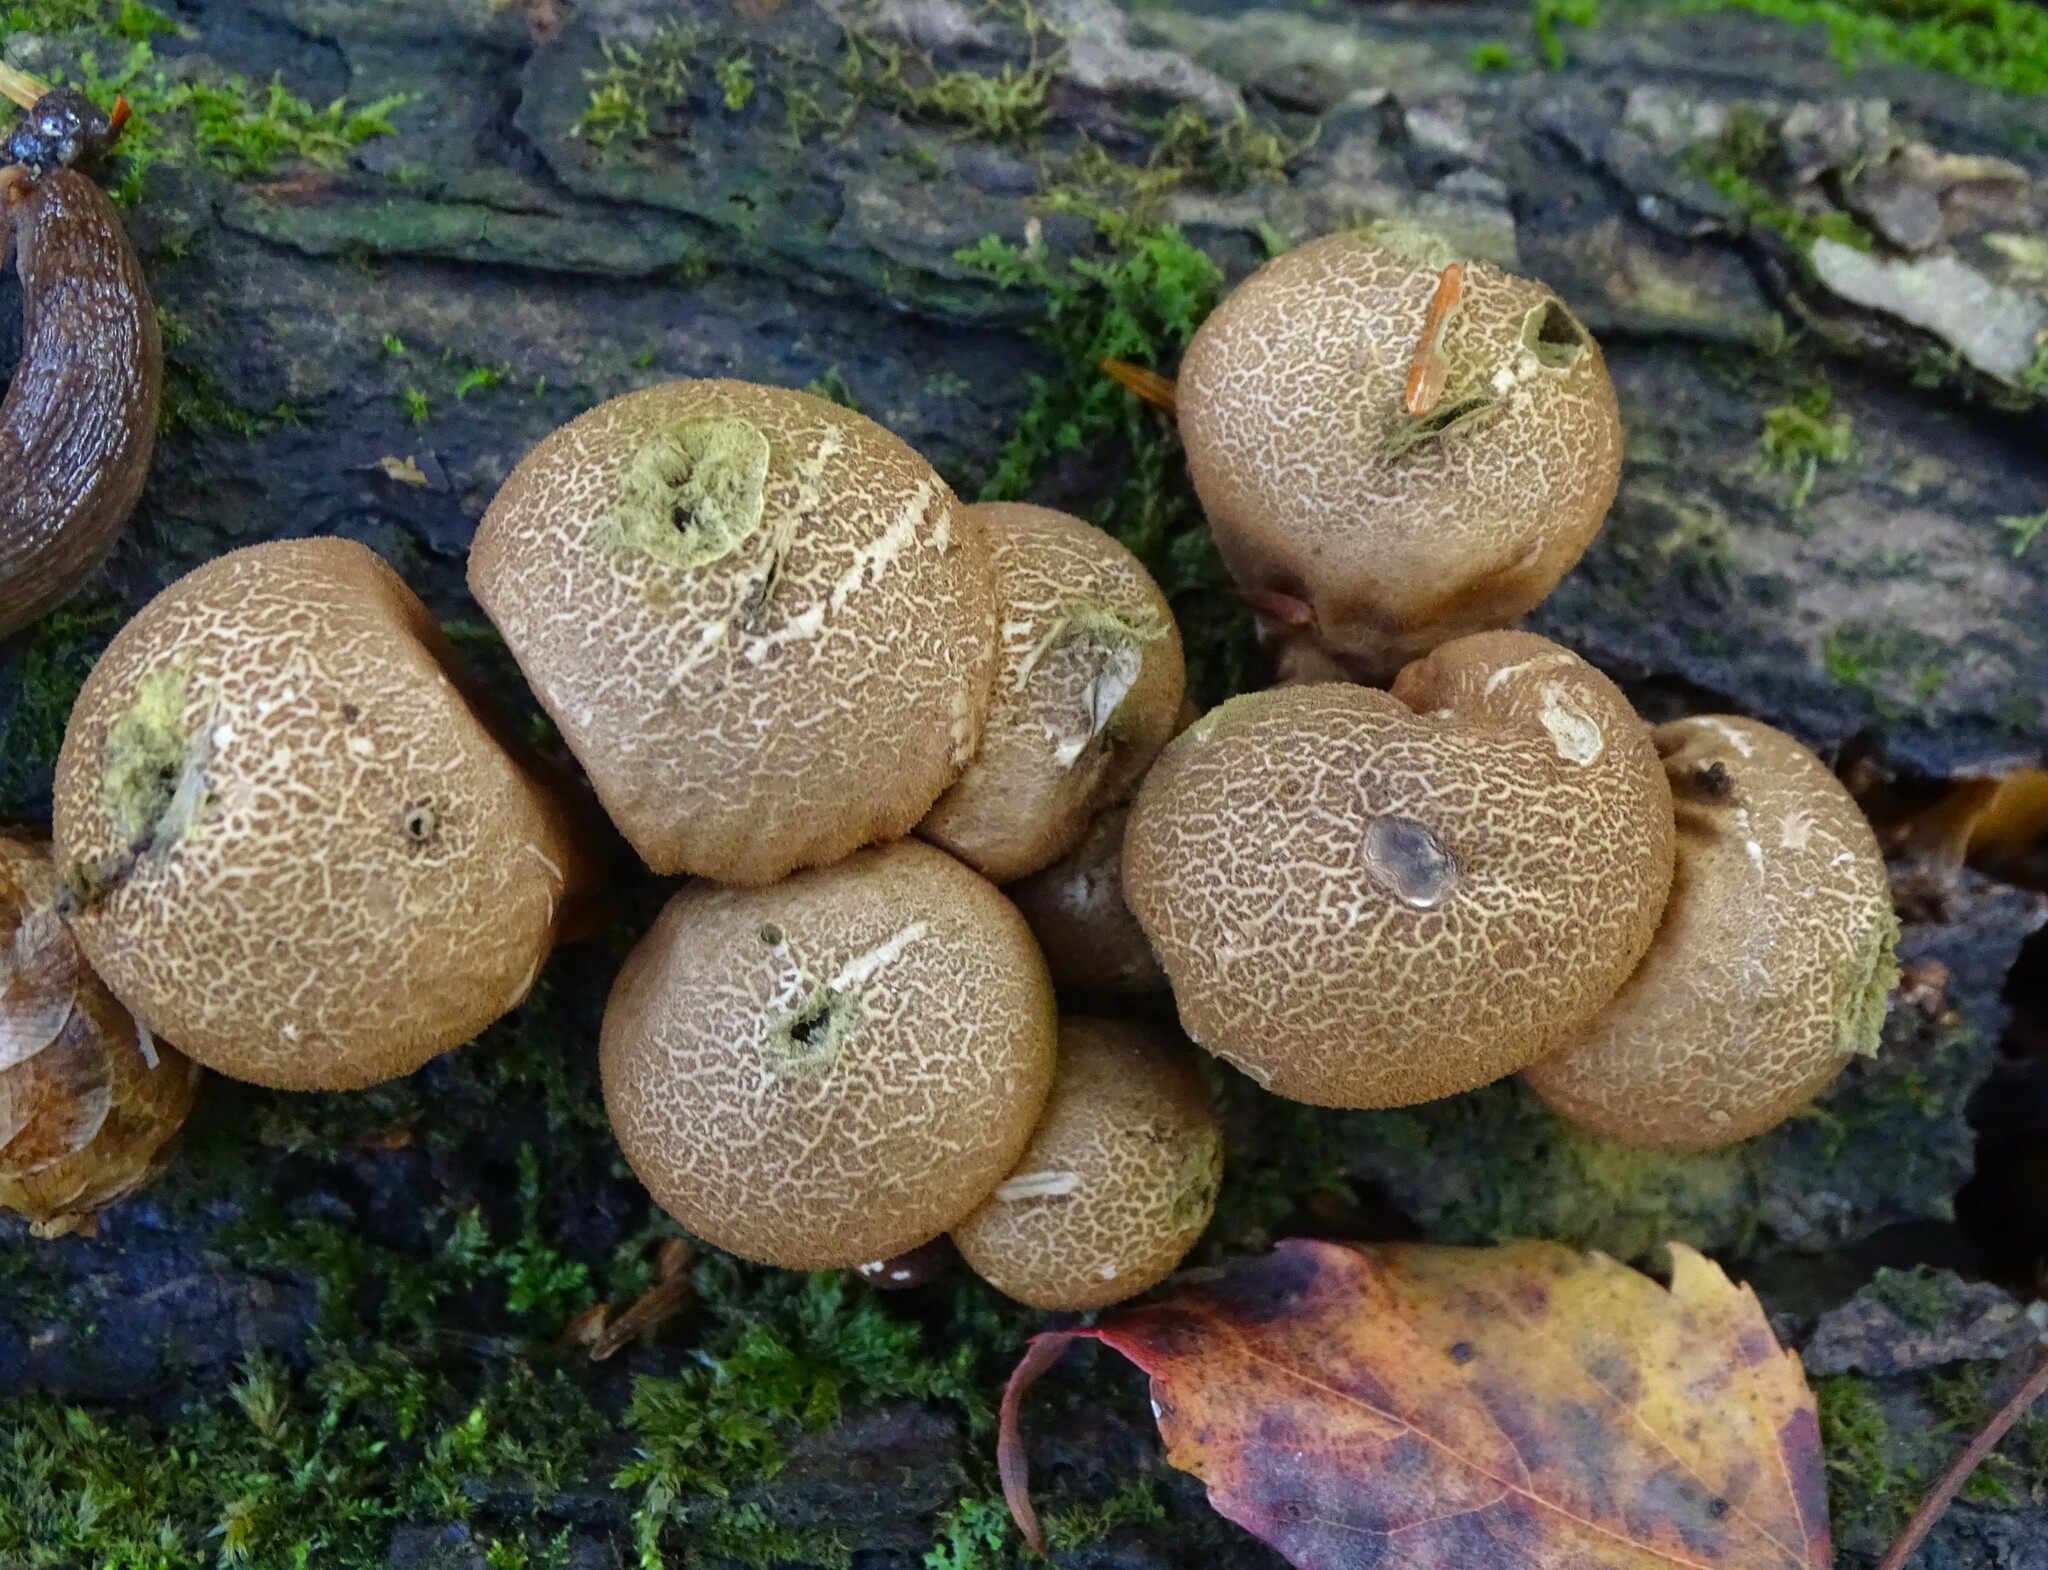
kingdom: Fungi
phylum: Basidiomycota
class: Agaricomycetes
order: Agaricales
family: Lycoperdaceae
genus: Apioperdon
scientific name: Apioperdon pyriforme
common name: Pear-shaped puffball
